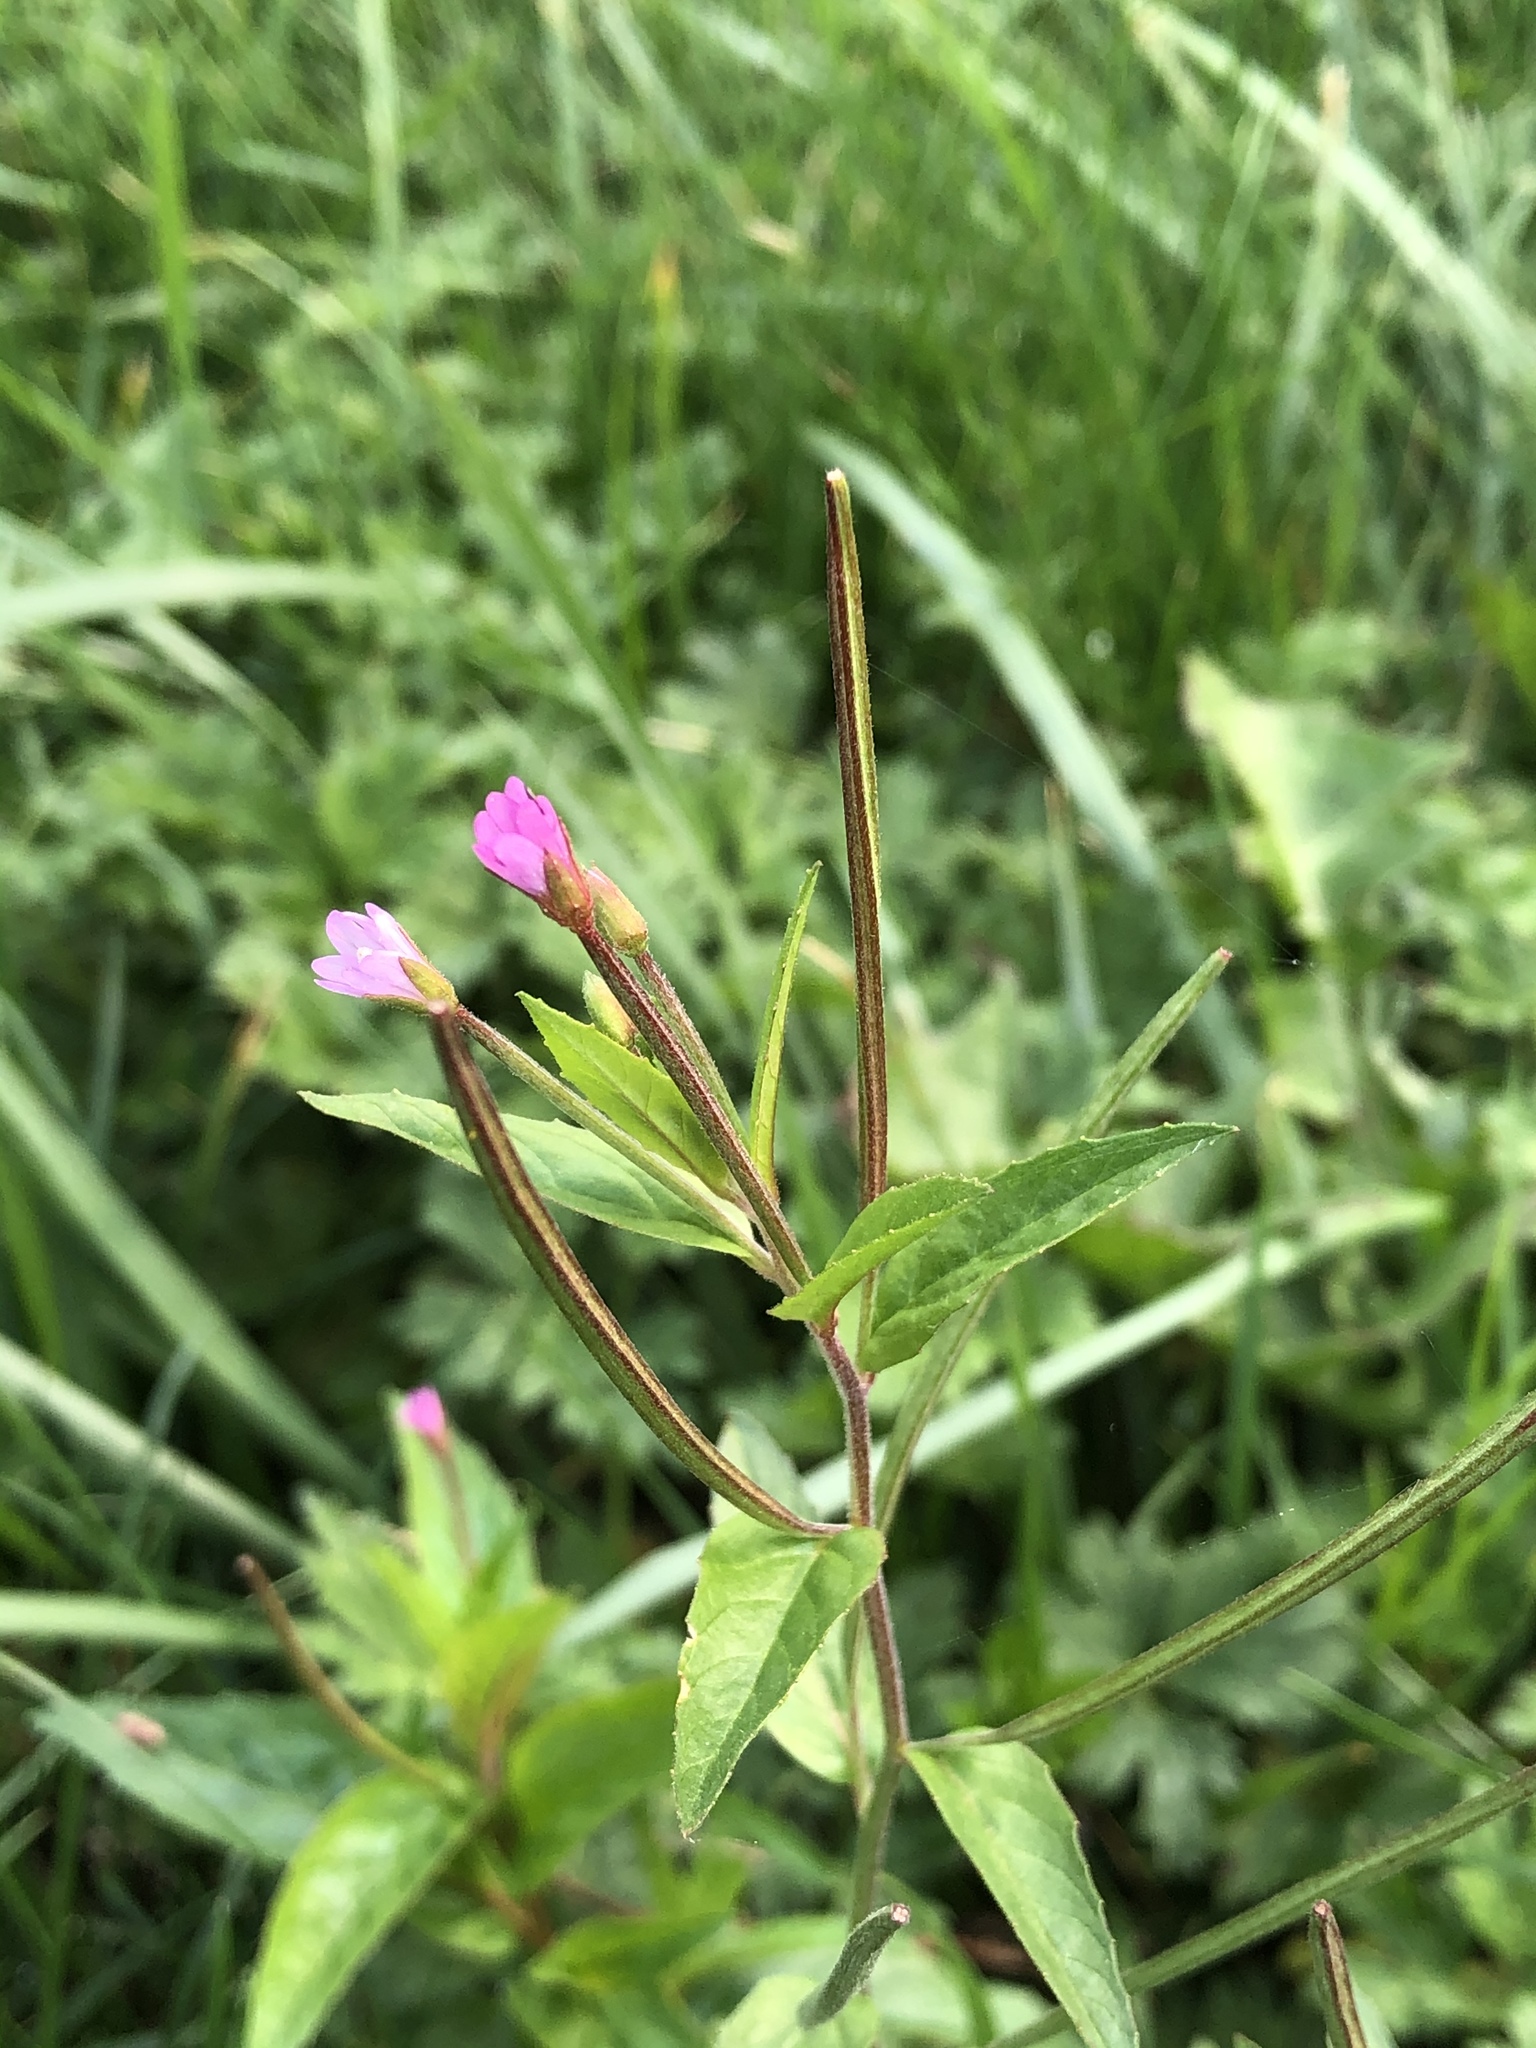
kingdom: Plantae
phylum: Tracheophyta
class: Magnoliopsida
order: Myrtales
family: Onagraceae
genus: Epilobium
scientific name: Epilobium ciliatum
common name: American willowherb
